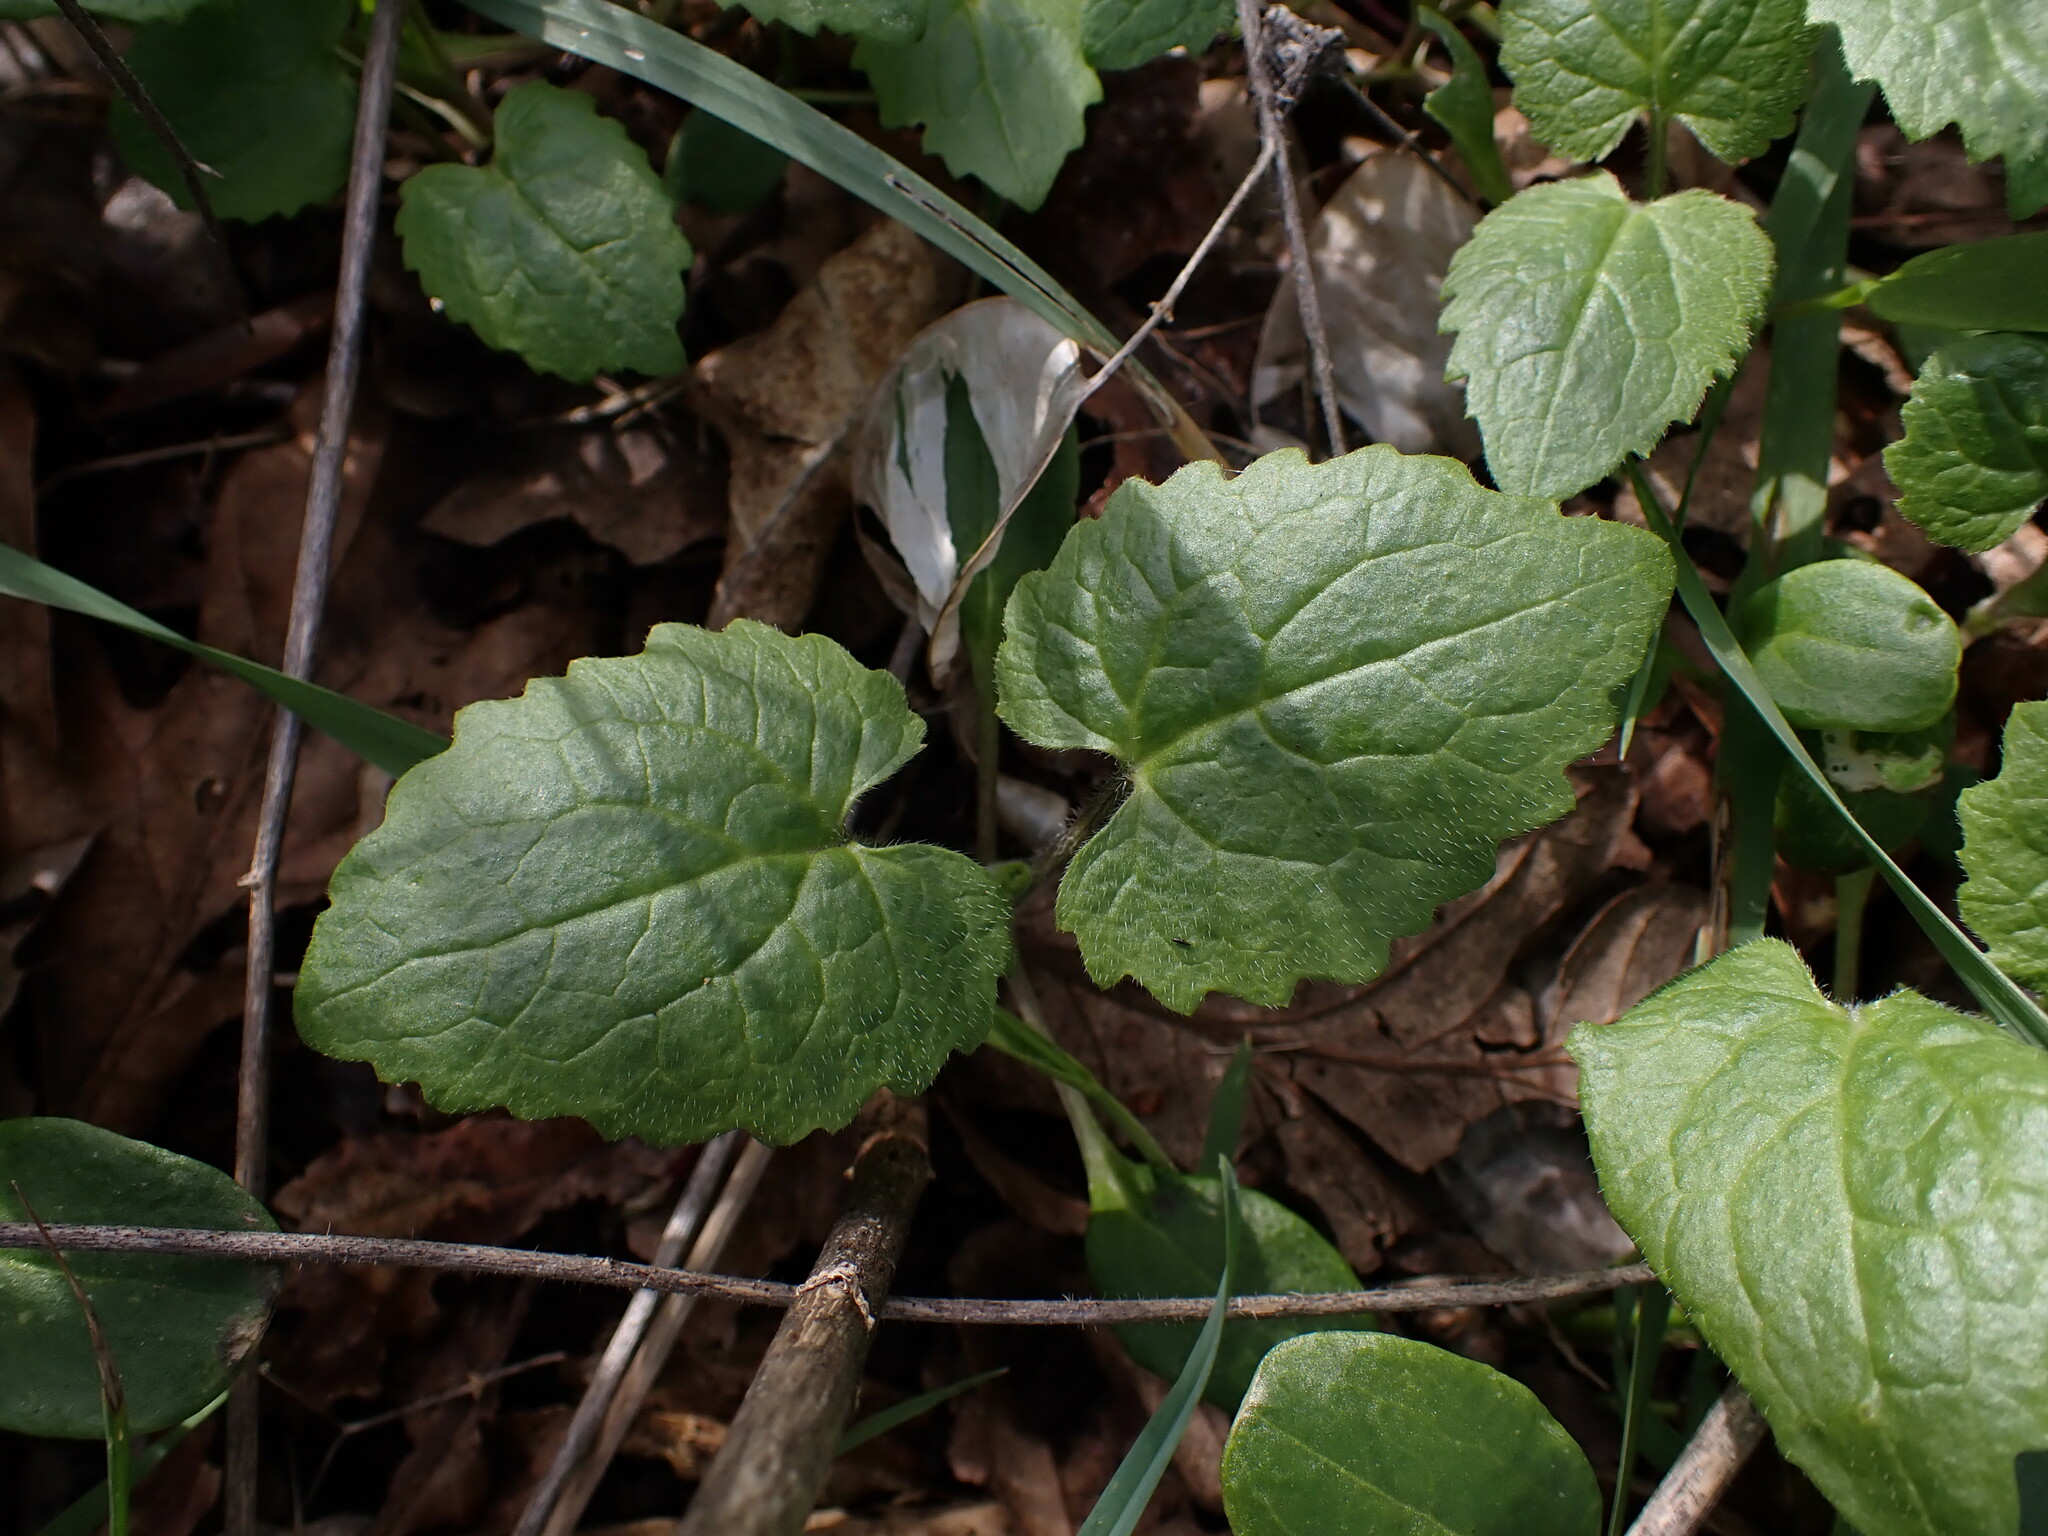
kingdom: Plantae
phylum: Tracheophyta
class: Magnoliopsida
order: Brassicales
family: Brassicaceae
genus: Lunaria
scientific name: Lunaria annua
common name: Honesty
